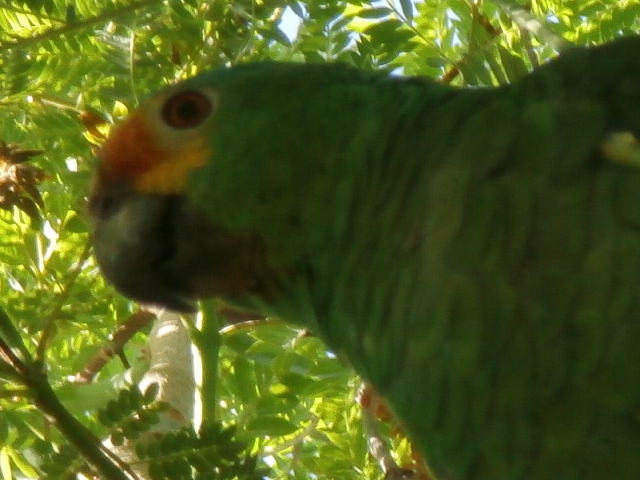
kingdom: Animalia
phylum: Chordata
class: Aves
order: Psittaciformes
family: Psittacidae
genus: Amazona
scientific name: Amazona autumnalis
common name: Red-lored amazon
